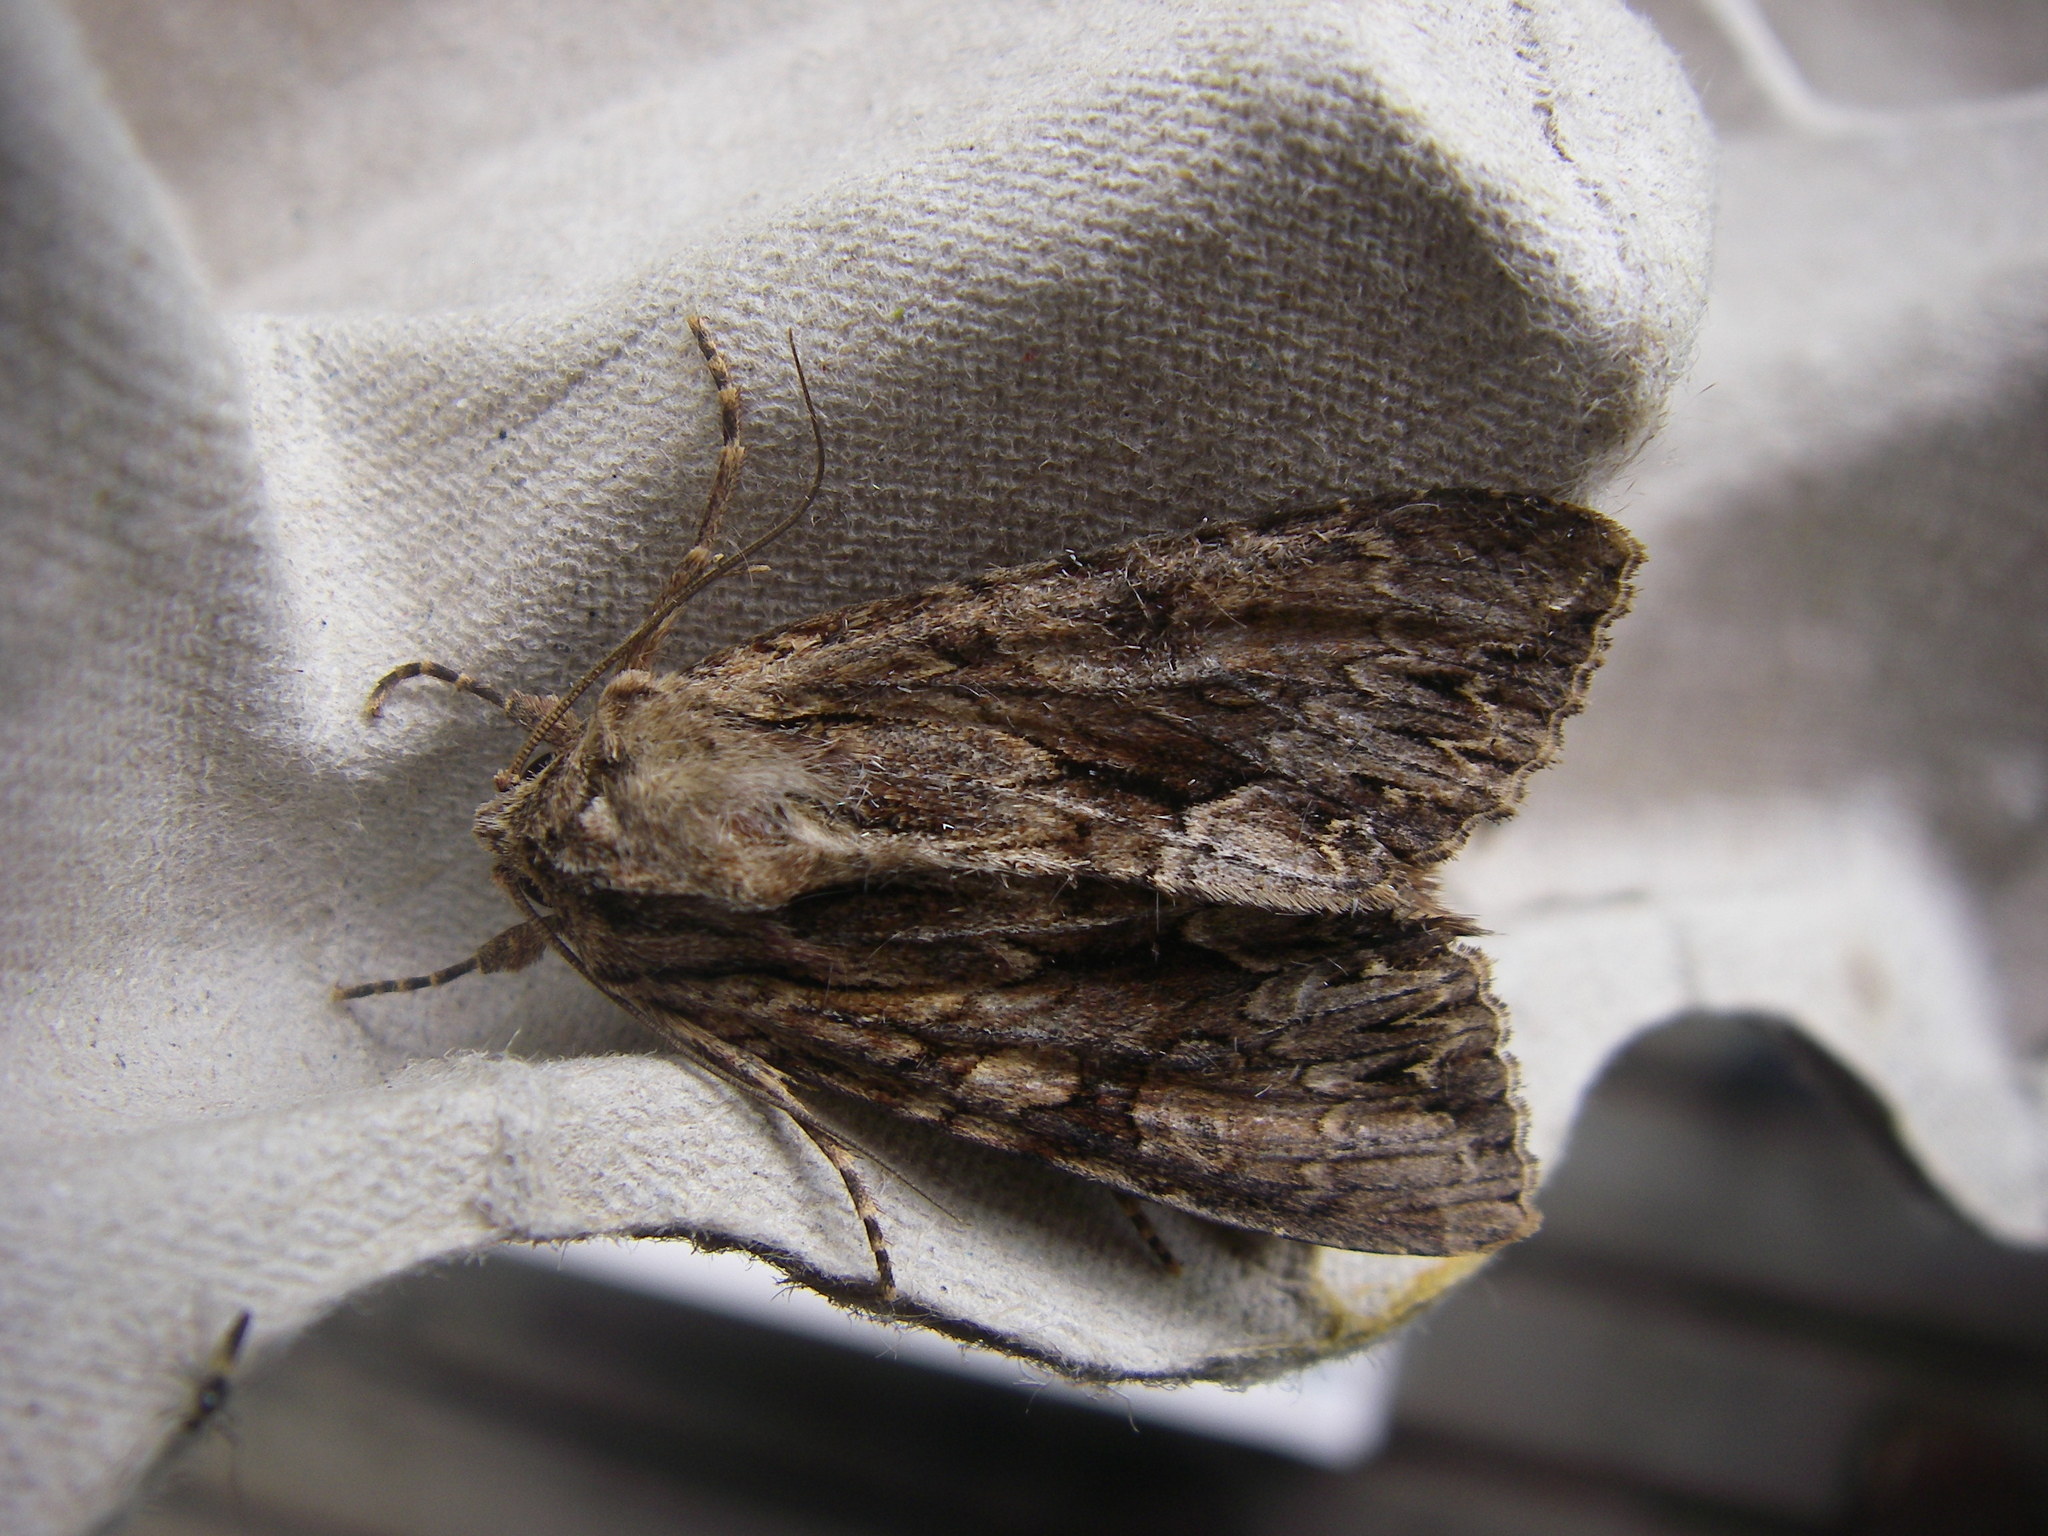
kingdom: Animalia
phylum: Arthropoda
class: Insecta
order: Lepidoptera
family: Noctuidae
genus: Apamea
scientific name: Apamea monoglypha
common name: Dark arches
